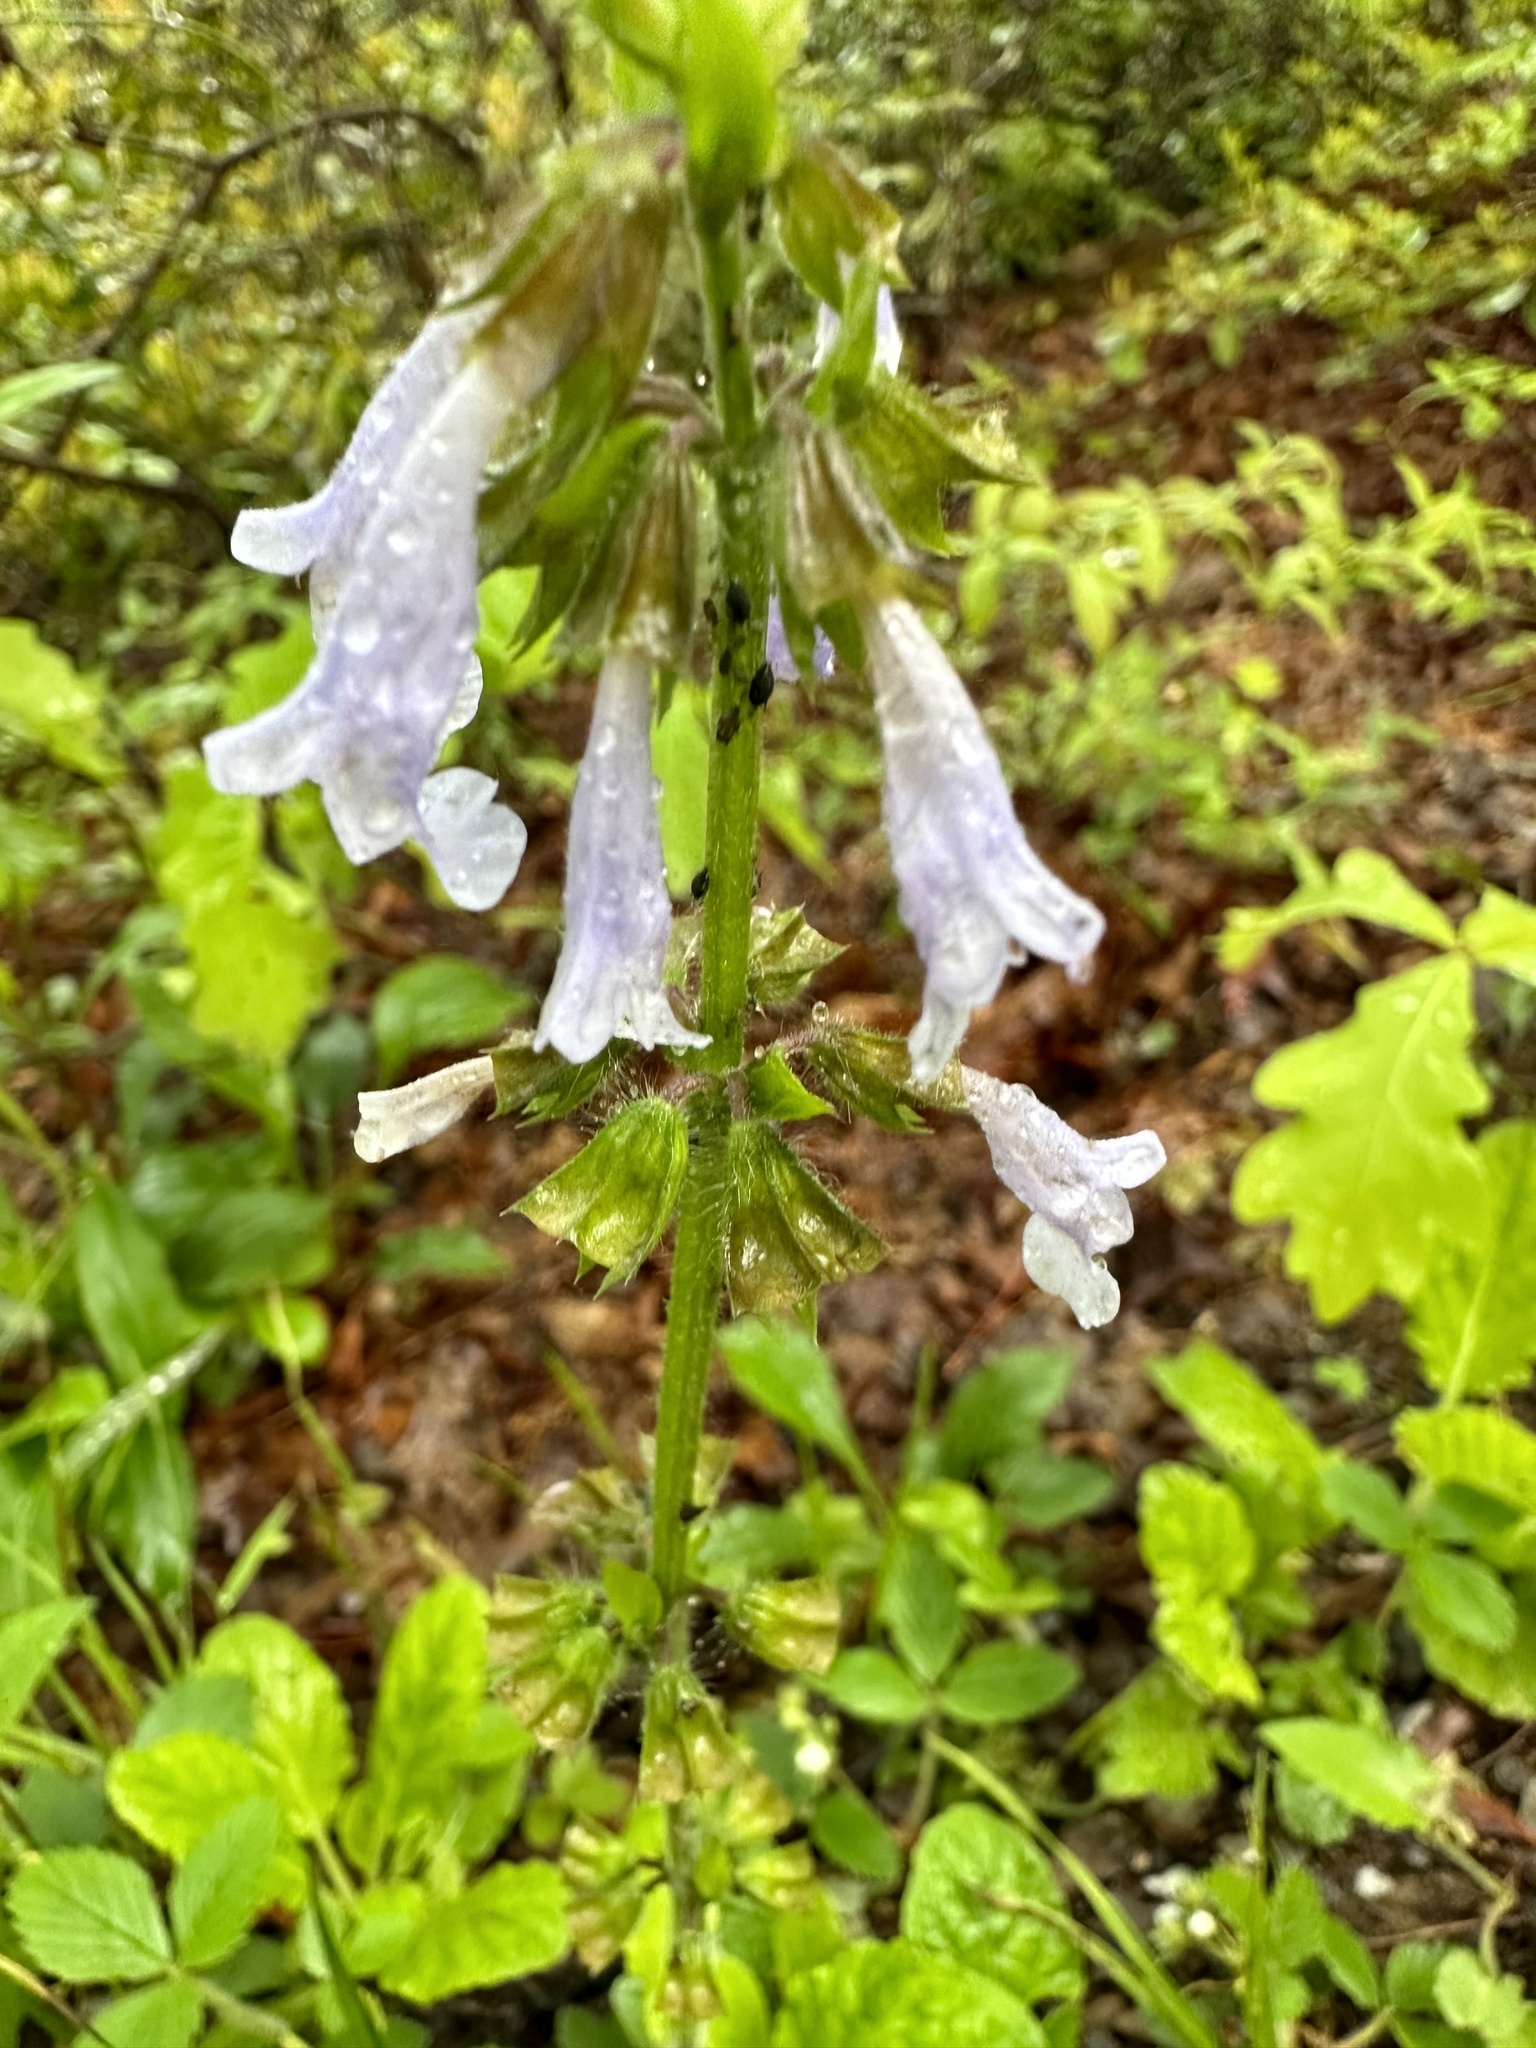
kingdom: Plantae
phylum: Tracheophyta
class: Magnoliopsida
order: Lamiales
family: Lamiaceae
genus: Salvia
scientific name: Salvia lyrata
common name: Cancerweed
